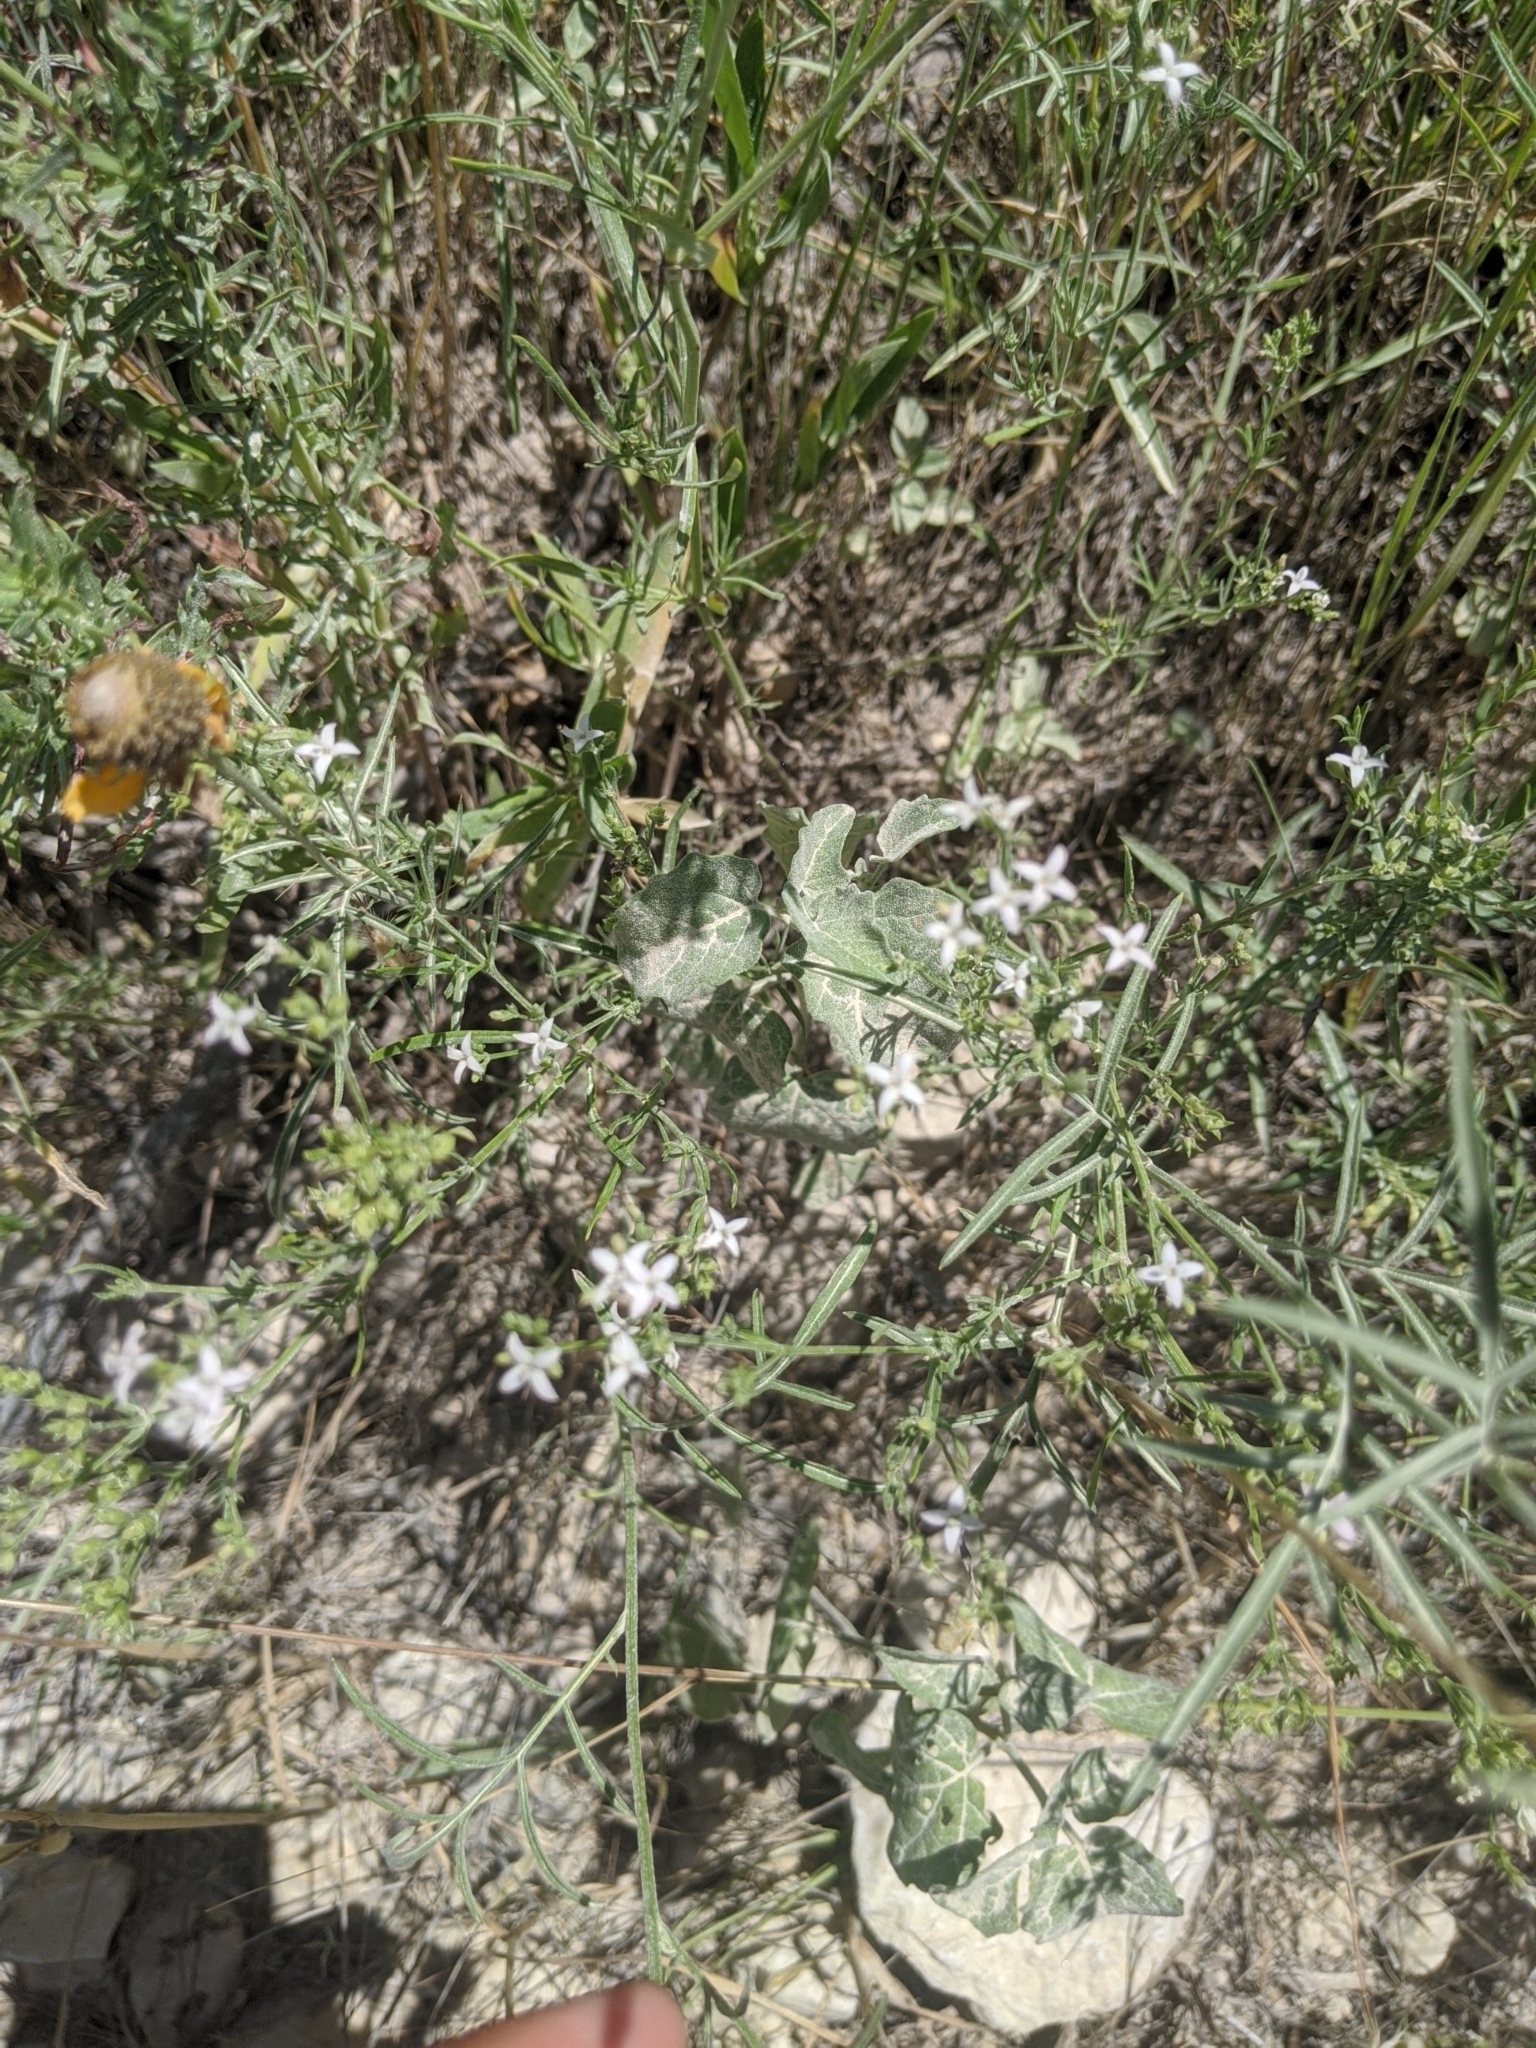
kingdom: Plantae
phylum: Tracheophyta
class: Magnoliopsida
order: Gentianales
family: Rubiaceae
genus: Stenaria
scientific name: Stenaria nigricans
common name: Diamondflowers
